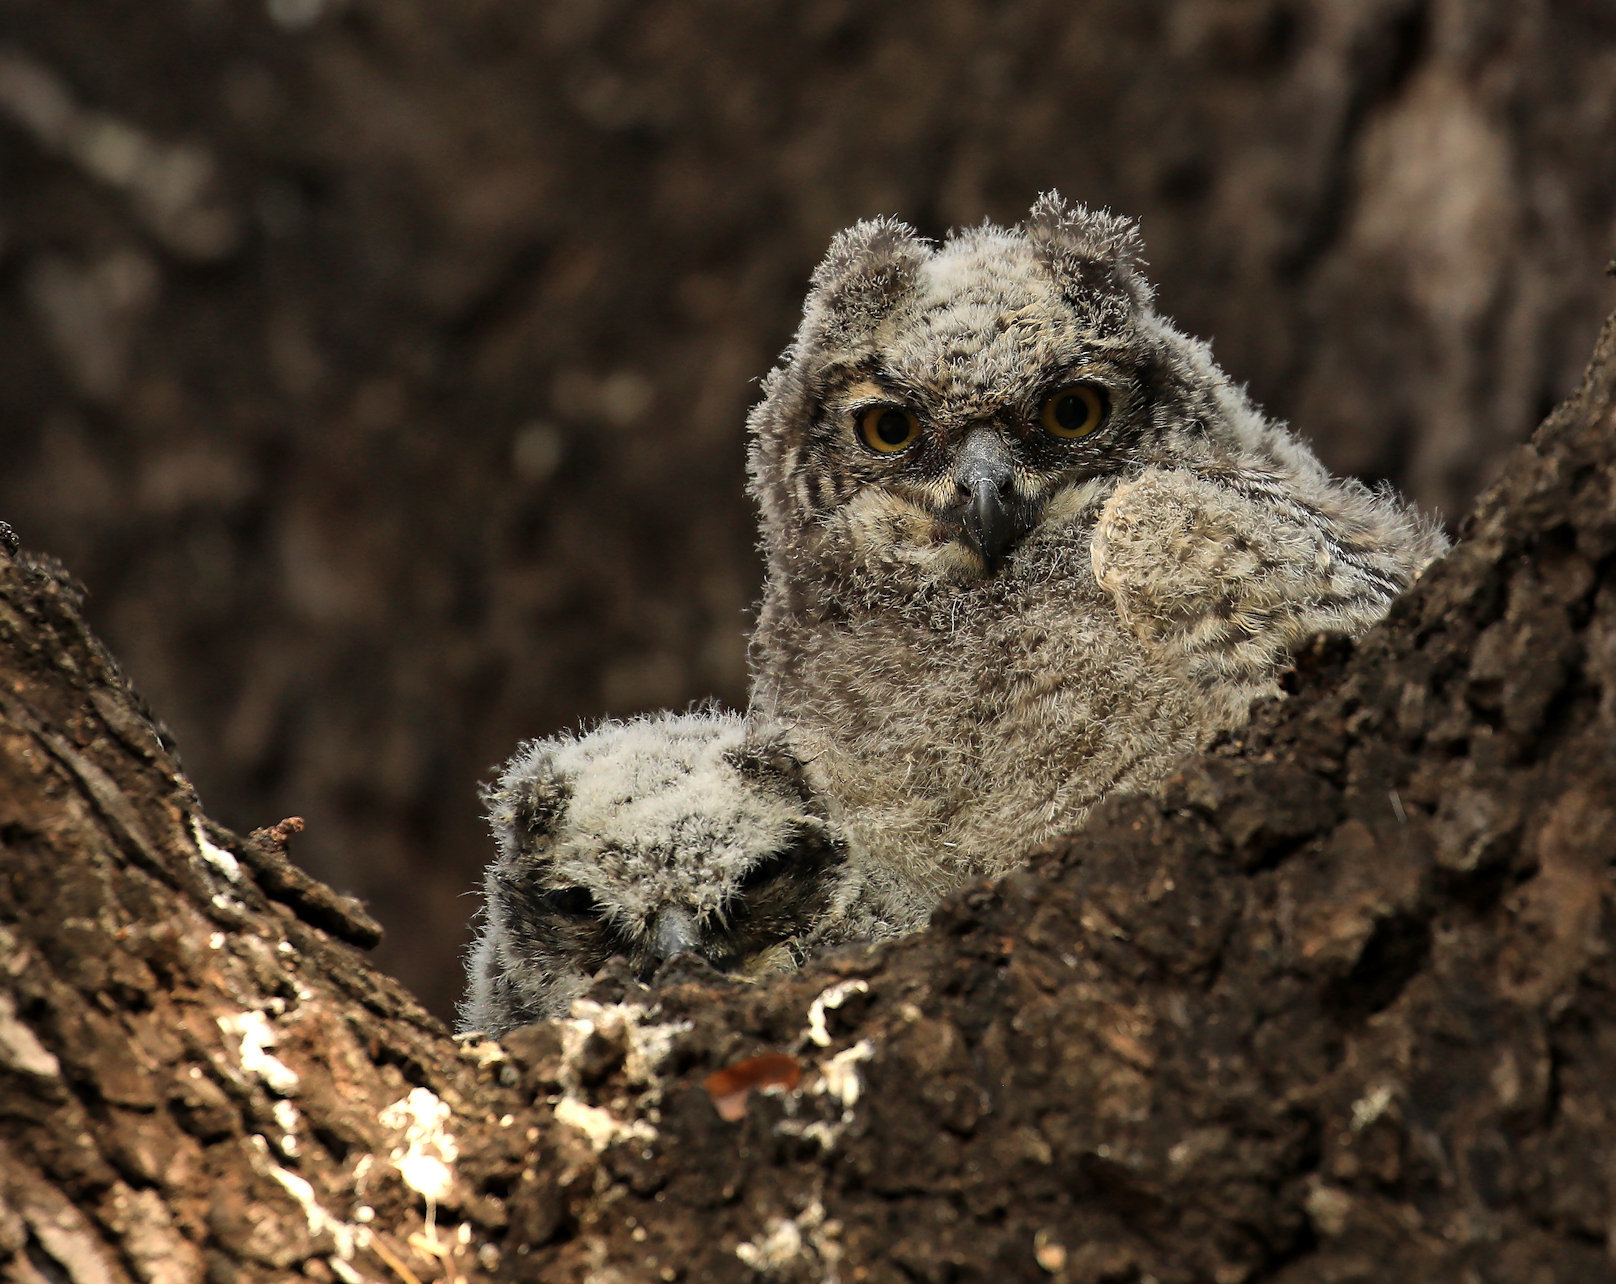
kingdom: Animalia
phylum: Chordata
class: Aves
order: Strigiformes
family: Strigidae
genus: Bubo
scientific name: Bubo africanus
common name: Spotted eagle-owl
